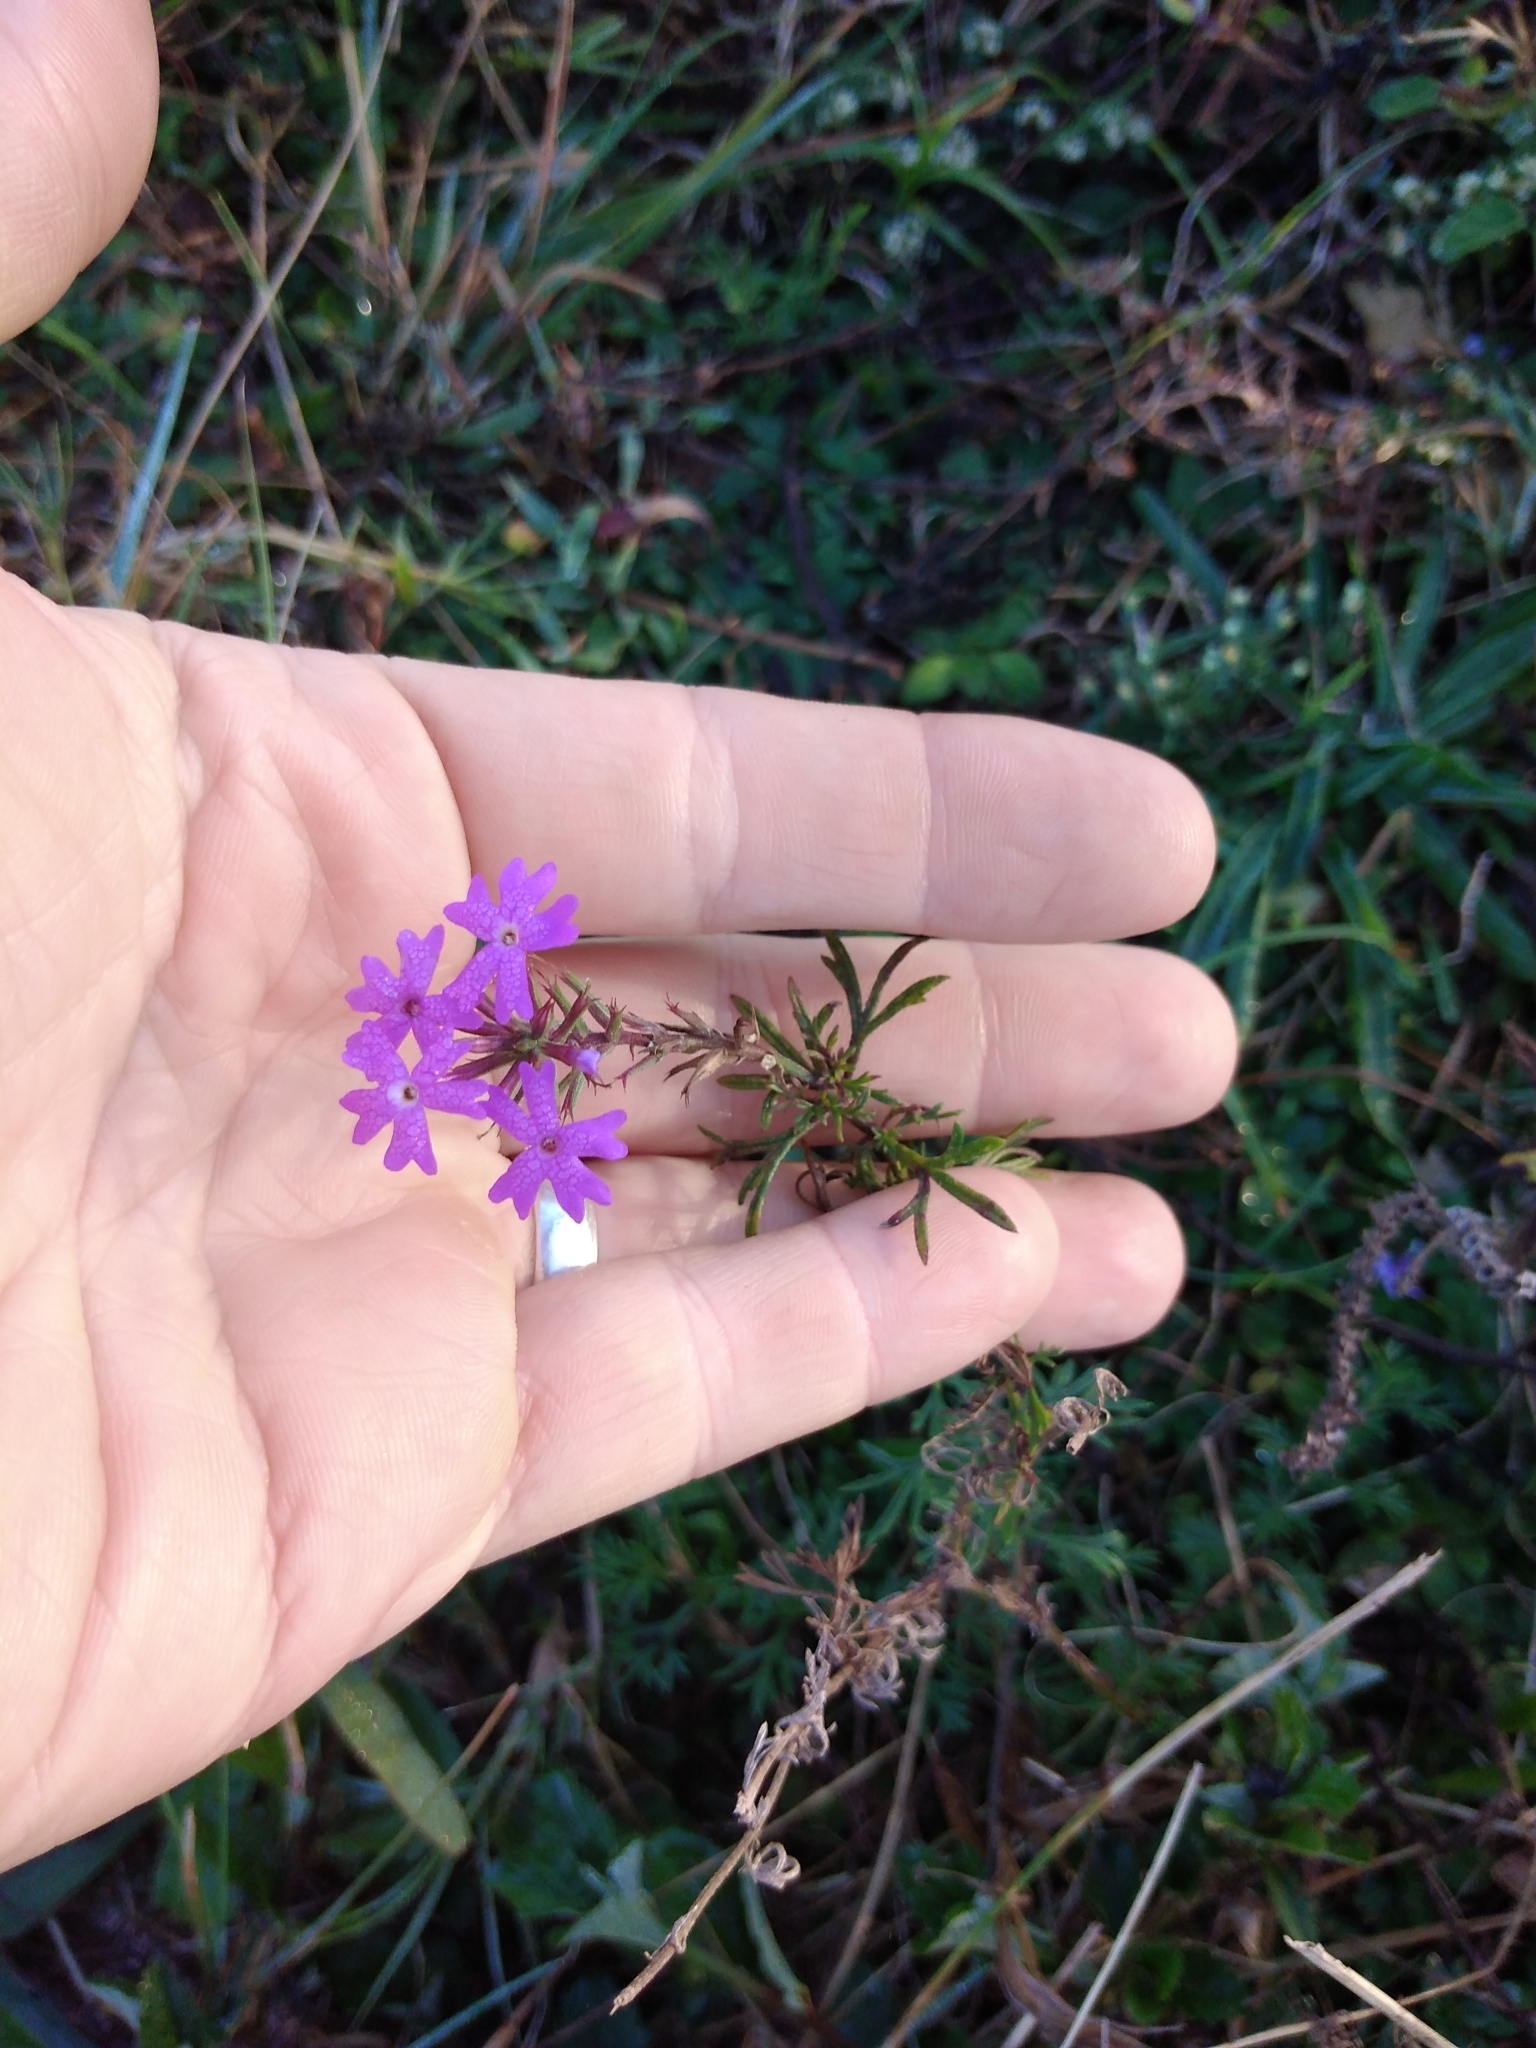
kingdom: Plantae
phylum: Tracheophyta
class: Magnoliopsida
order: Lamiales
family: Verbenaceae
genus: Verbena
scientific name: Verbena aristigera
